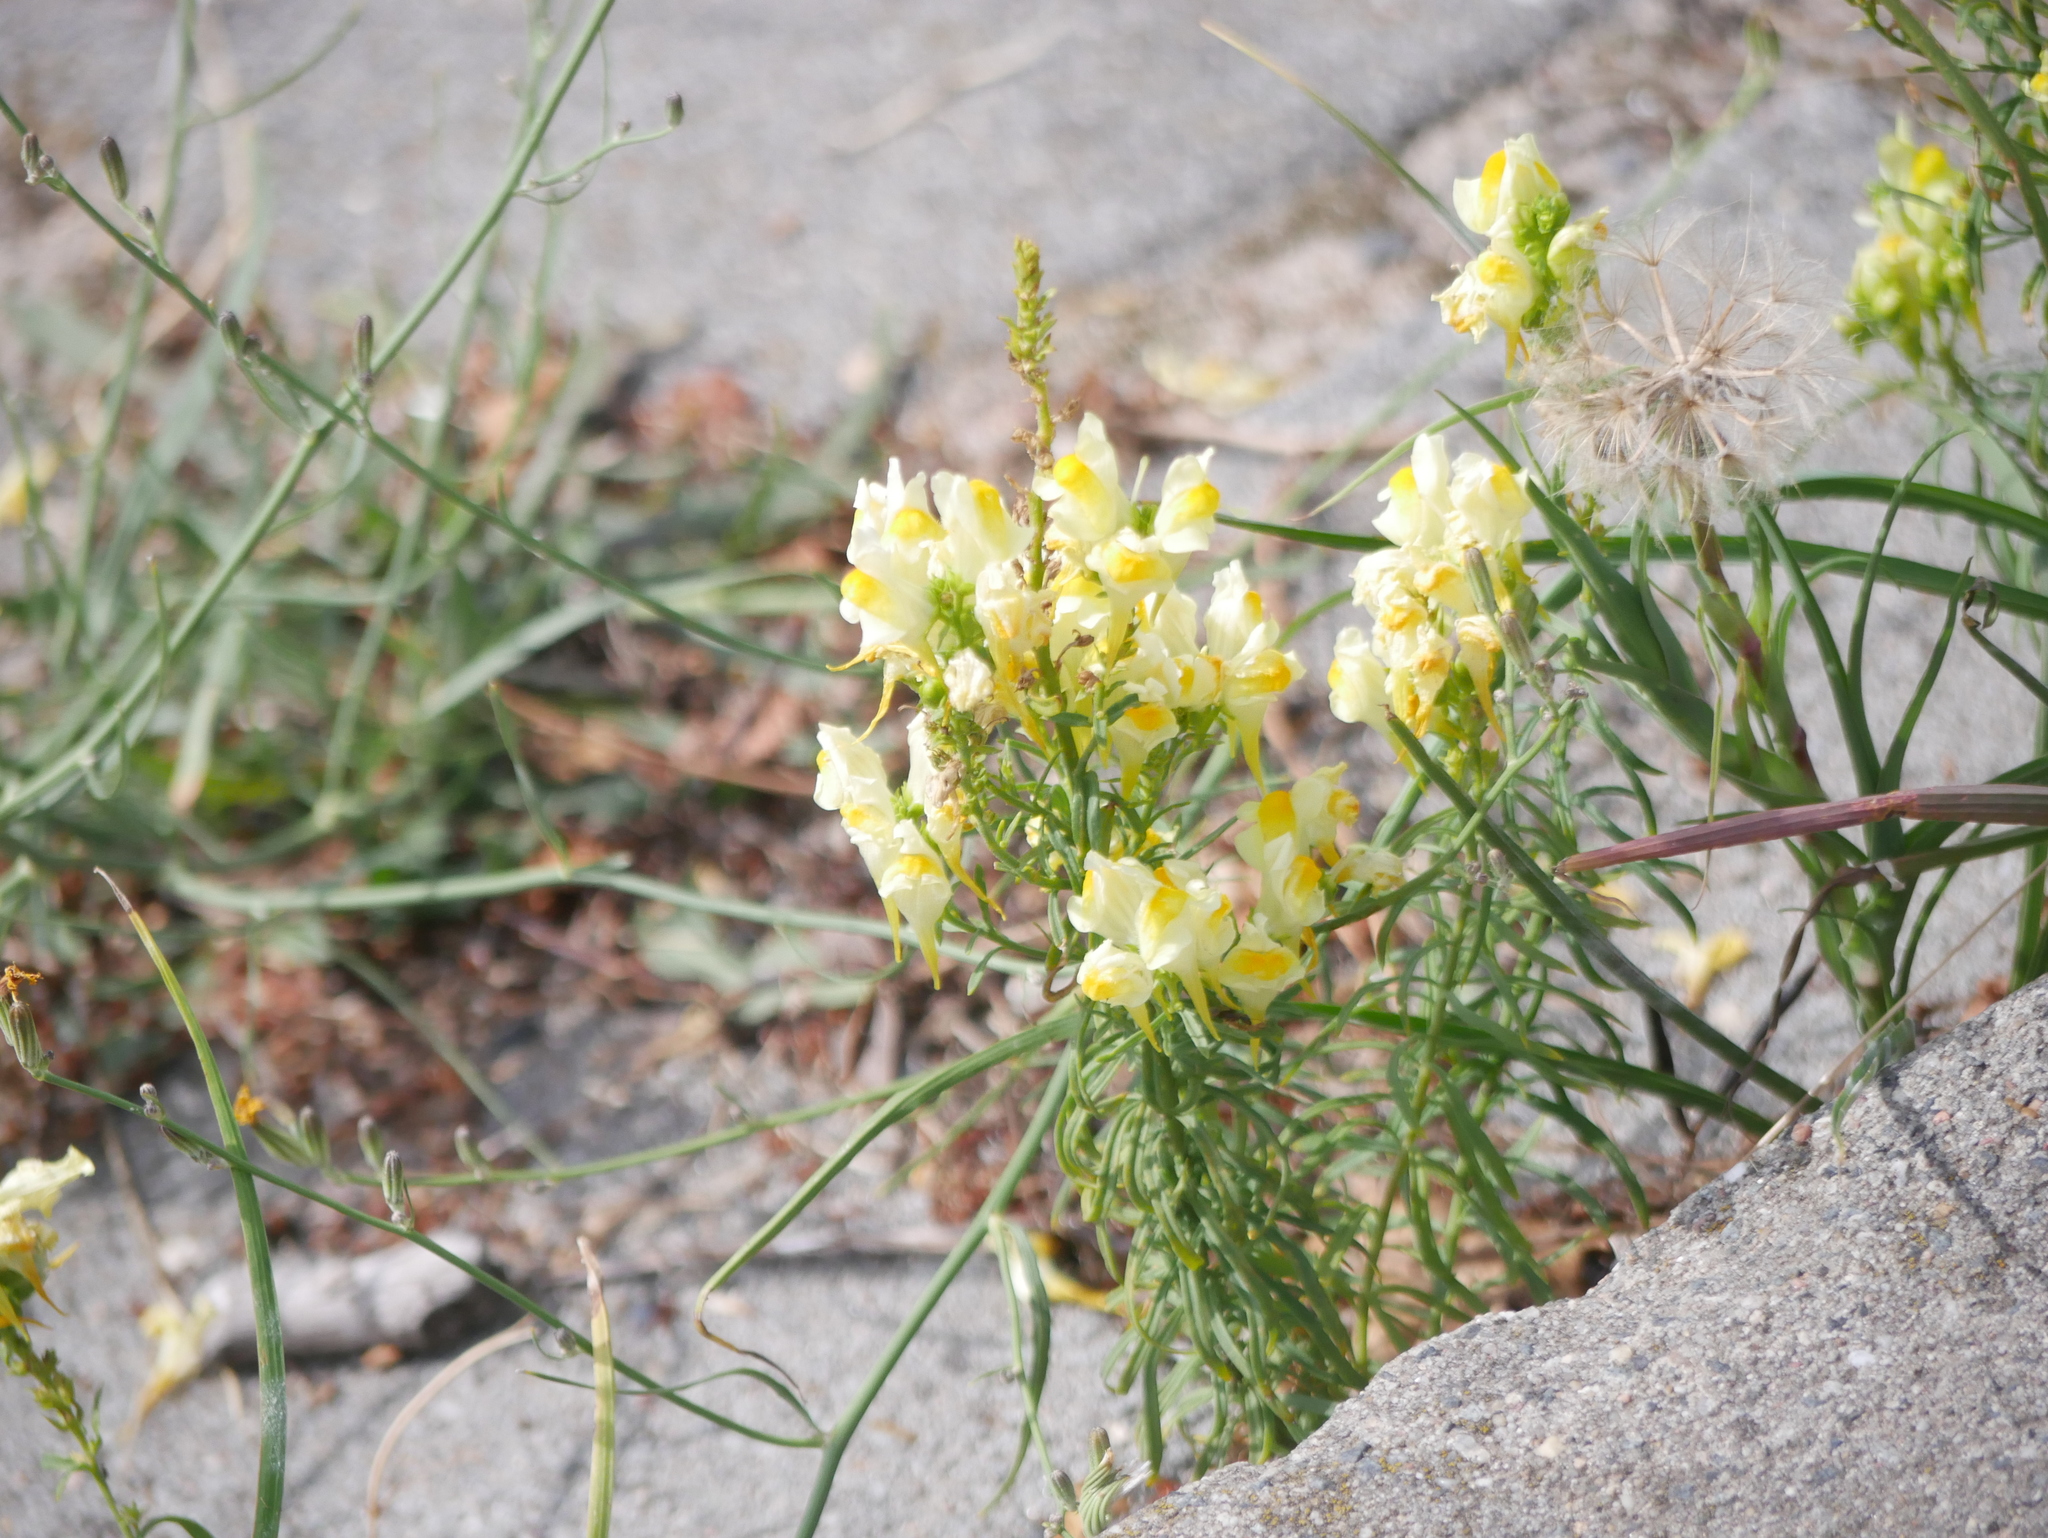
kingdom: Plantae
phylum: Tracheophyta
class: Magnoliopsida
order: Lamiales
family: Plantaginaceae
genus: Linaria
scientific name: Linaria vulgaris
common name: Butter and eggs
